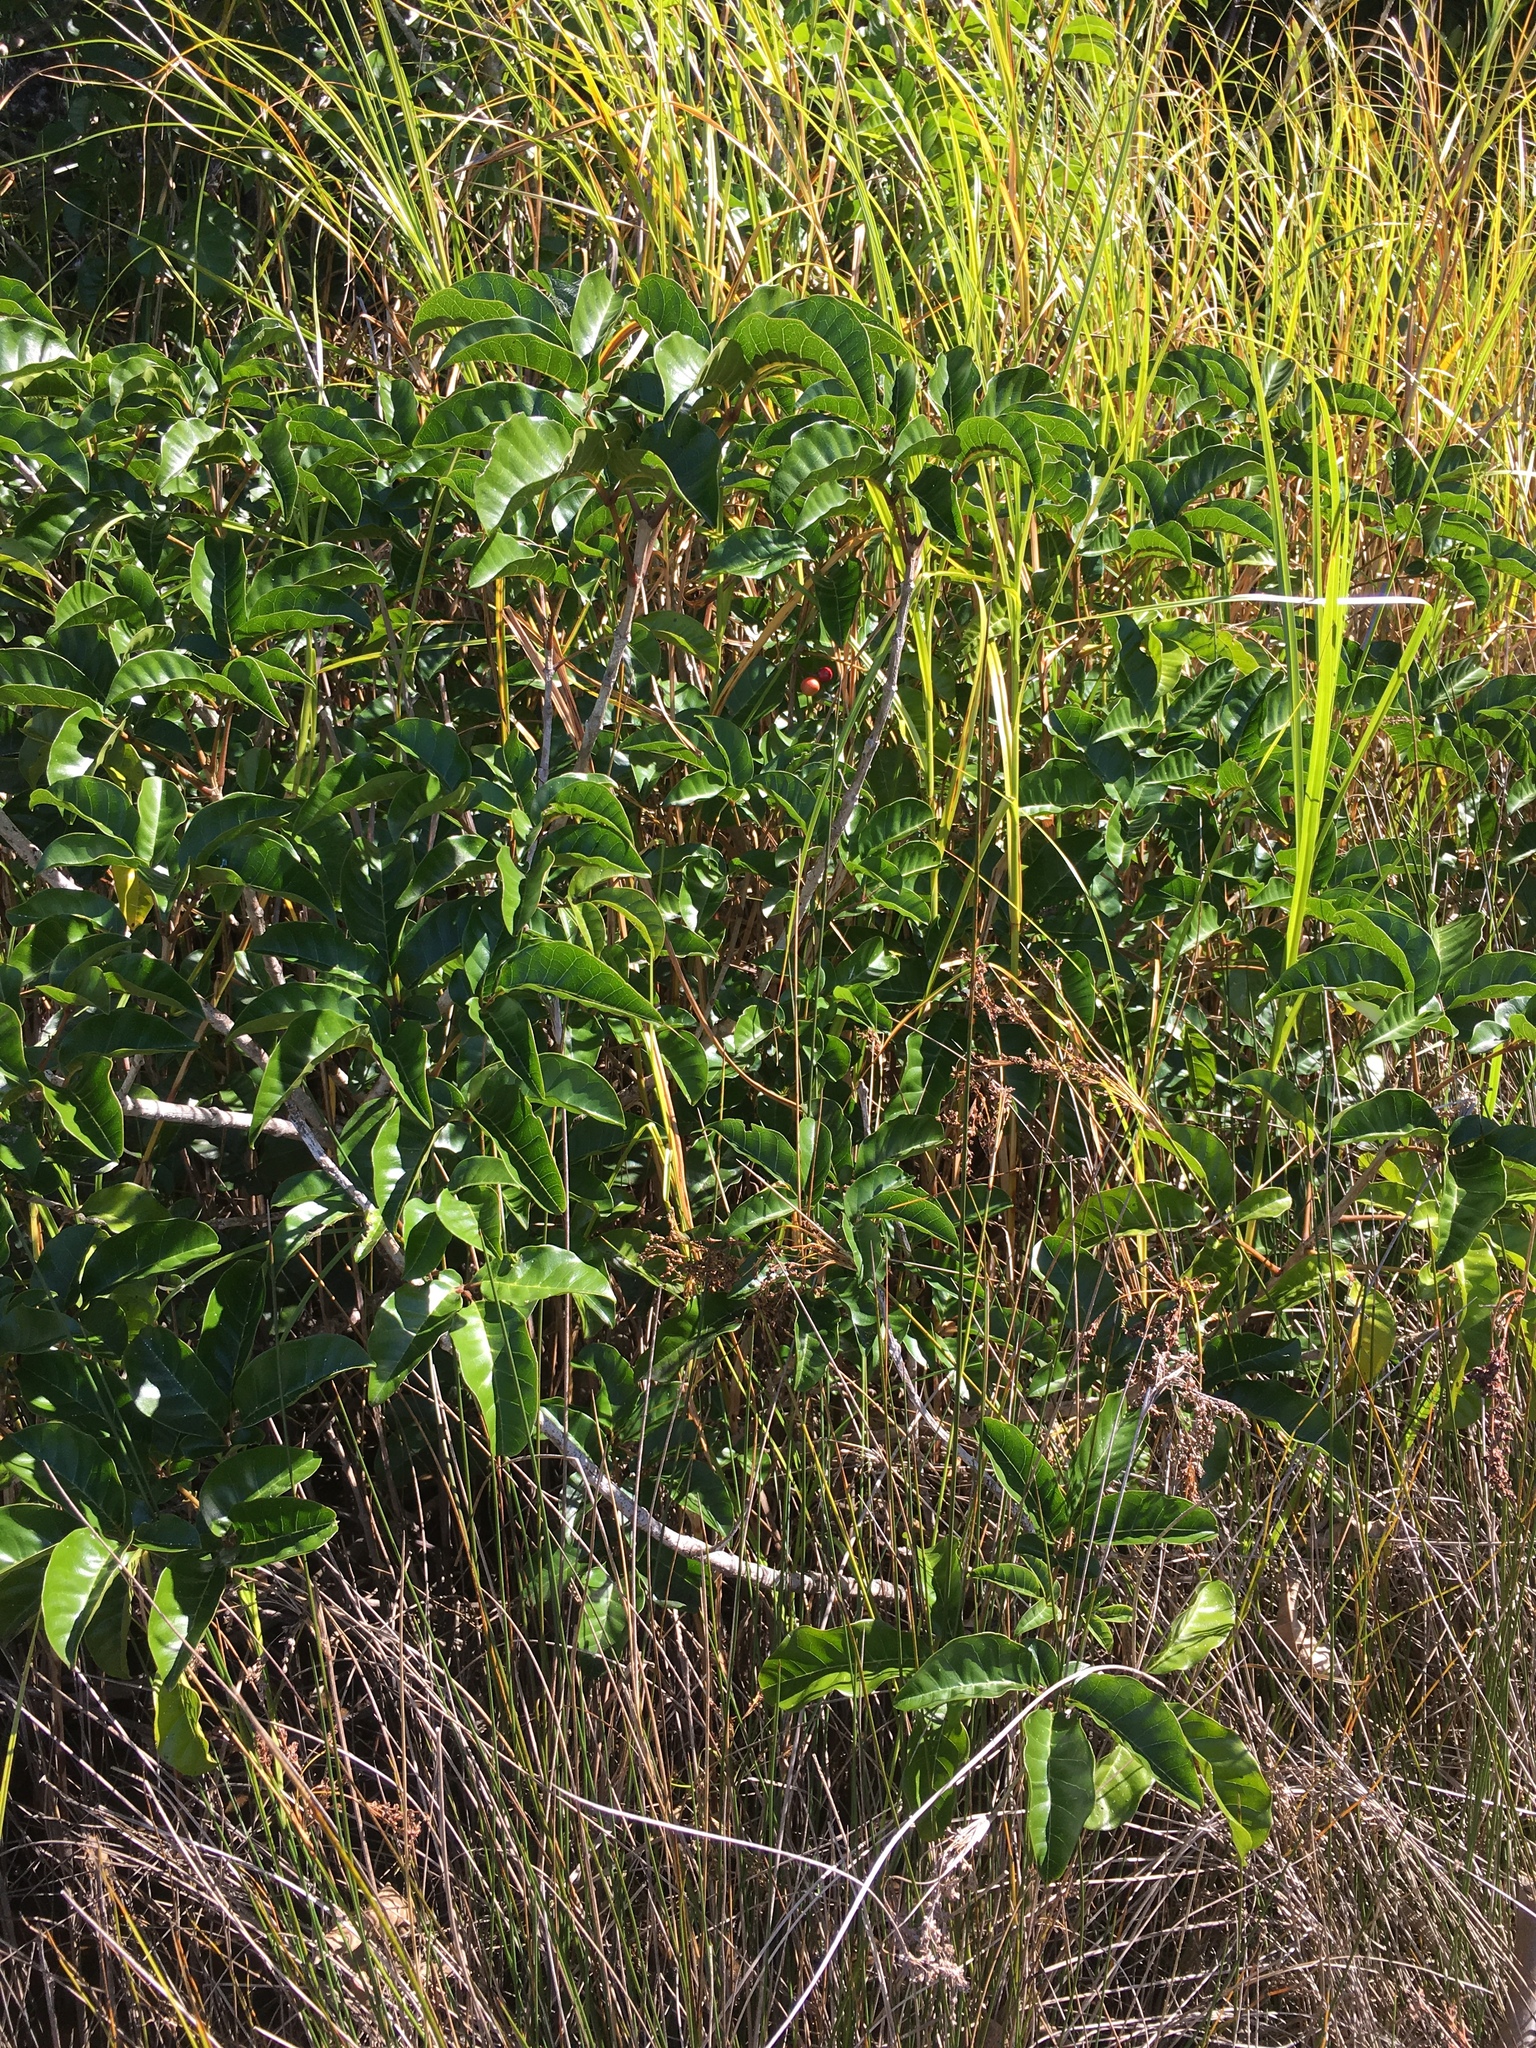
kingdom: Plantae
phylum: Tracheophyta
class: Magnoliopsida
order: Lamiales
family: Lamiaceae
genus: Vitex
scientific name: Vitex lucens
